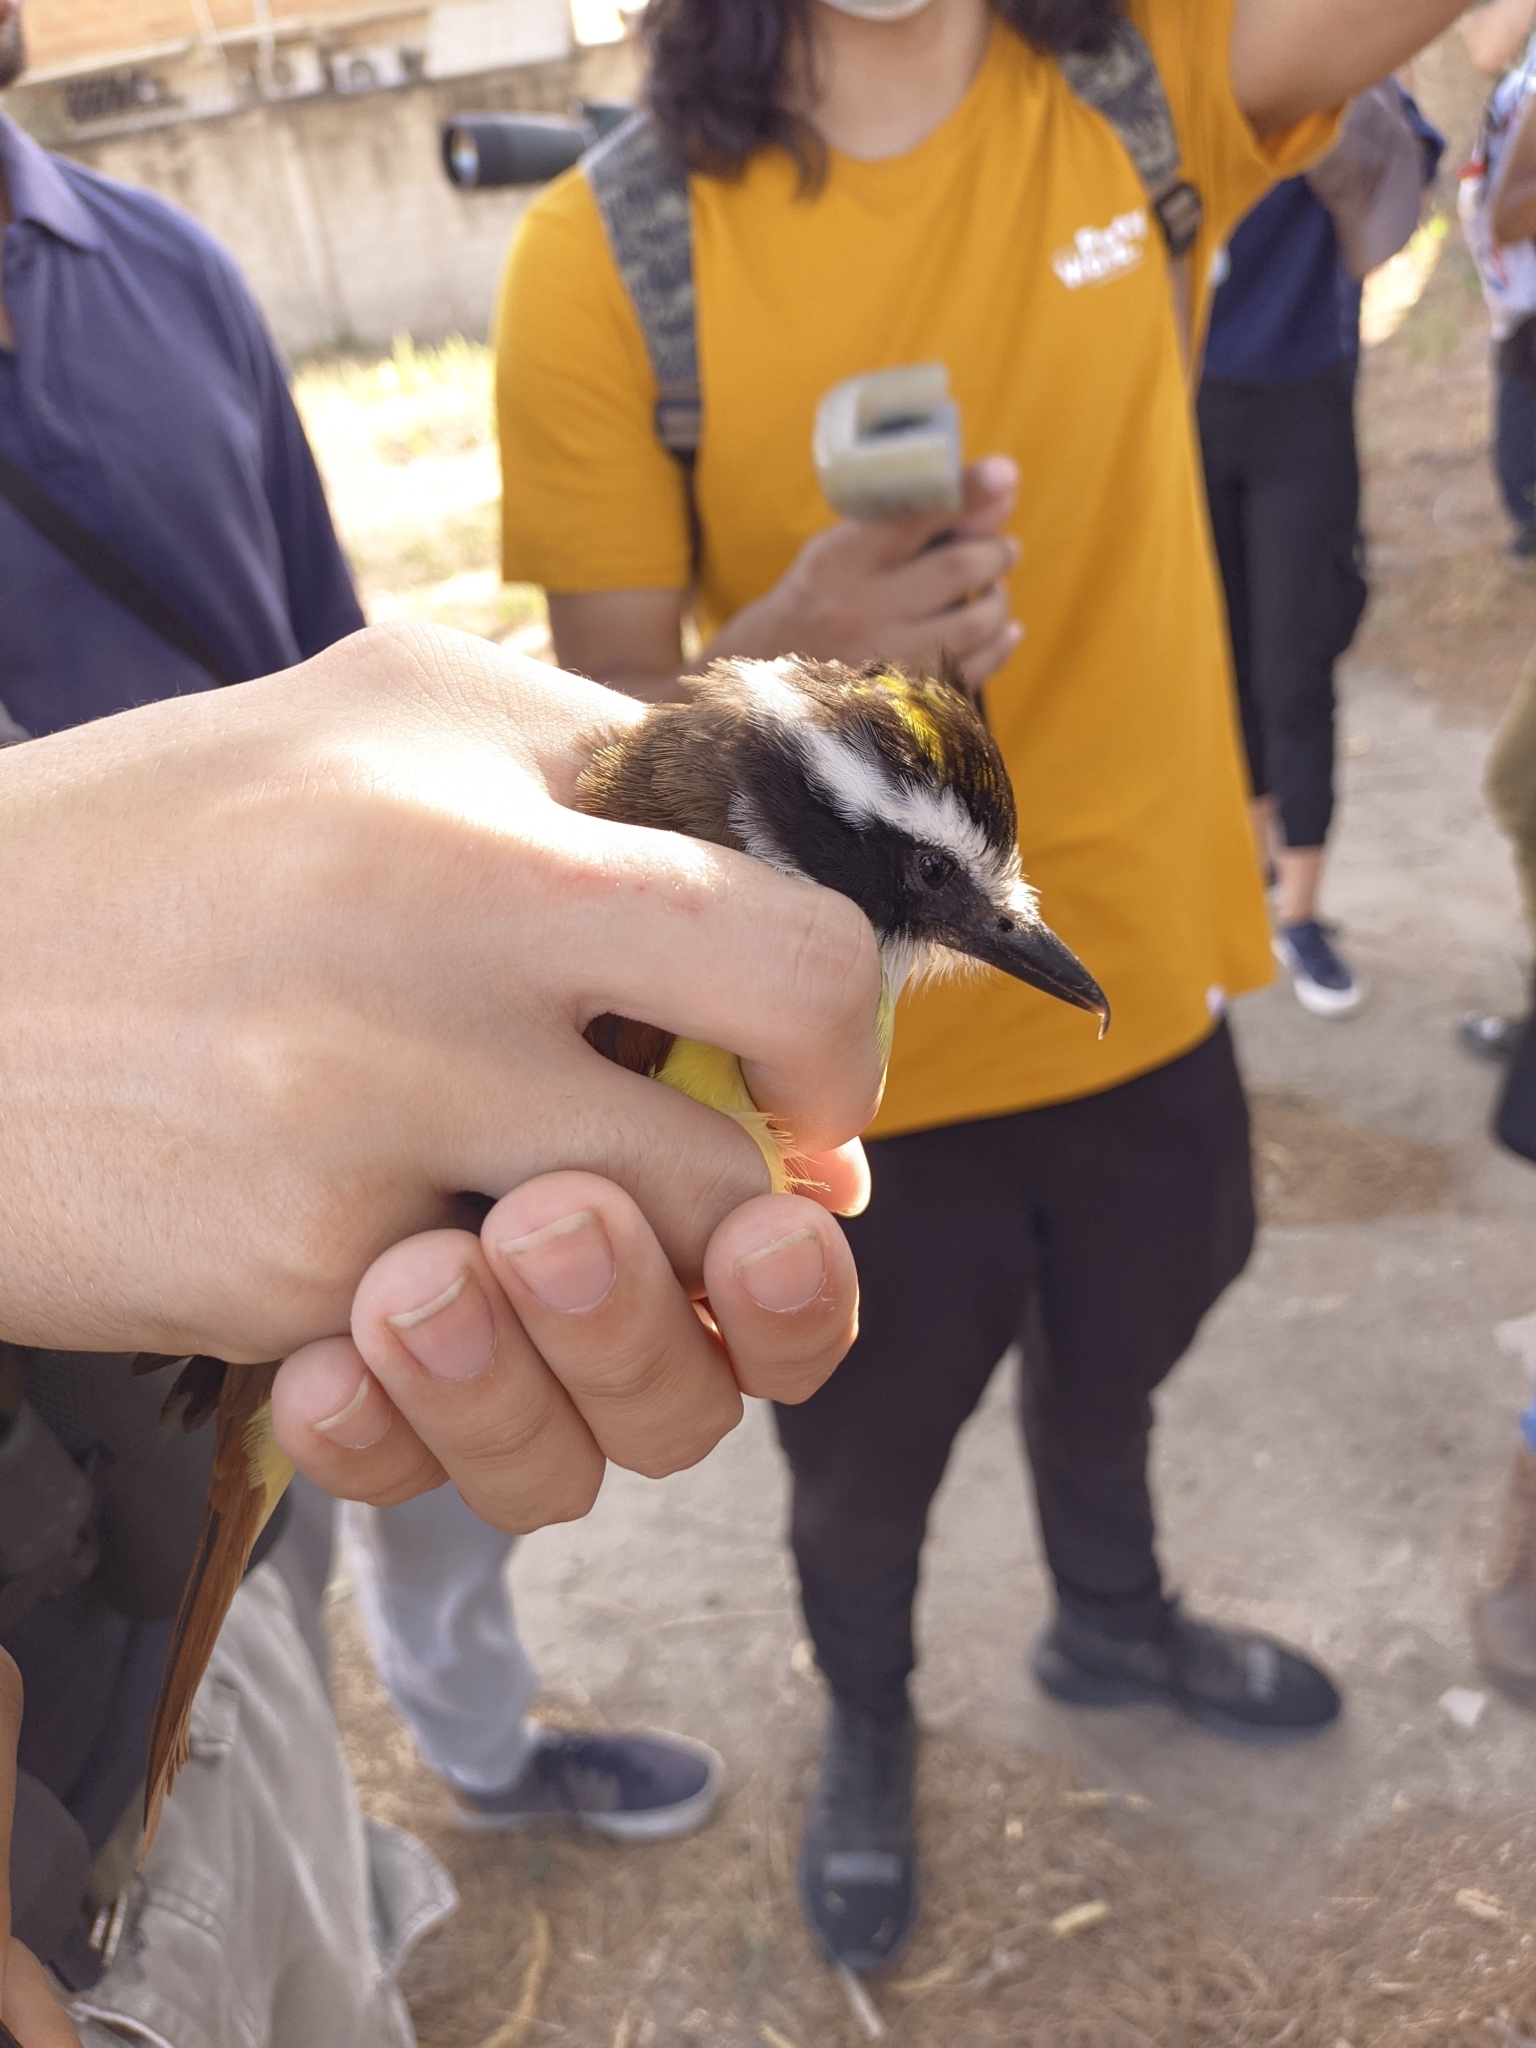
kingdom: Animalia
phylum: Chordata
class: Aves
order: Passeriformes
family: Tyrannidae
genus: Pitangus
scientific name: Pitangus sulphuratus
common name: Great kiskadee
